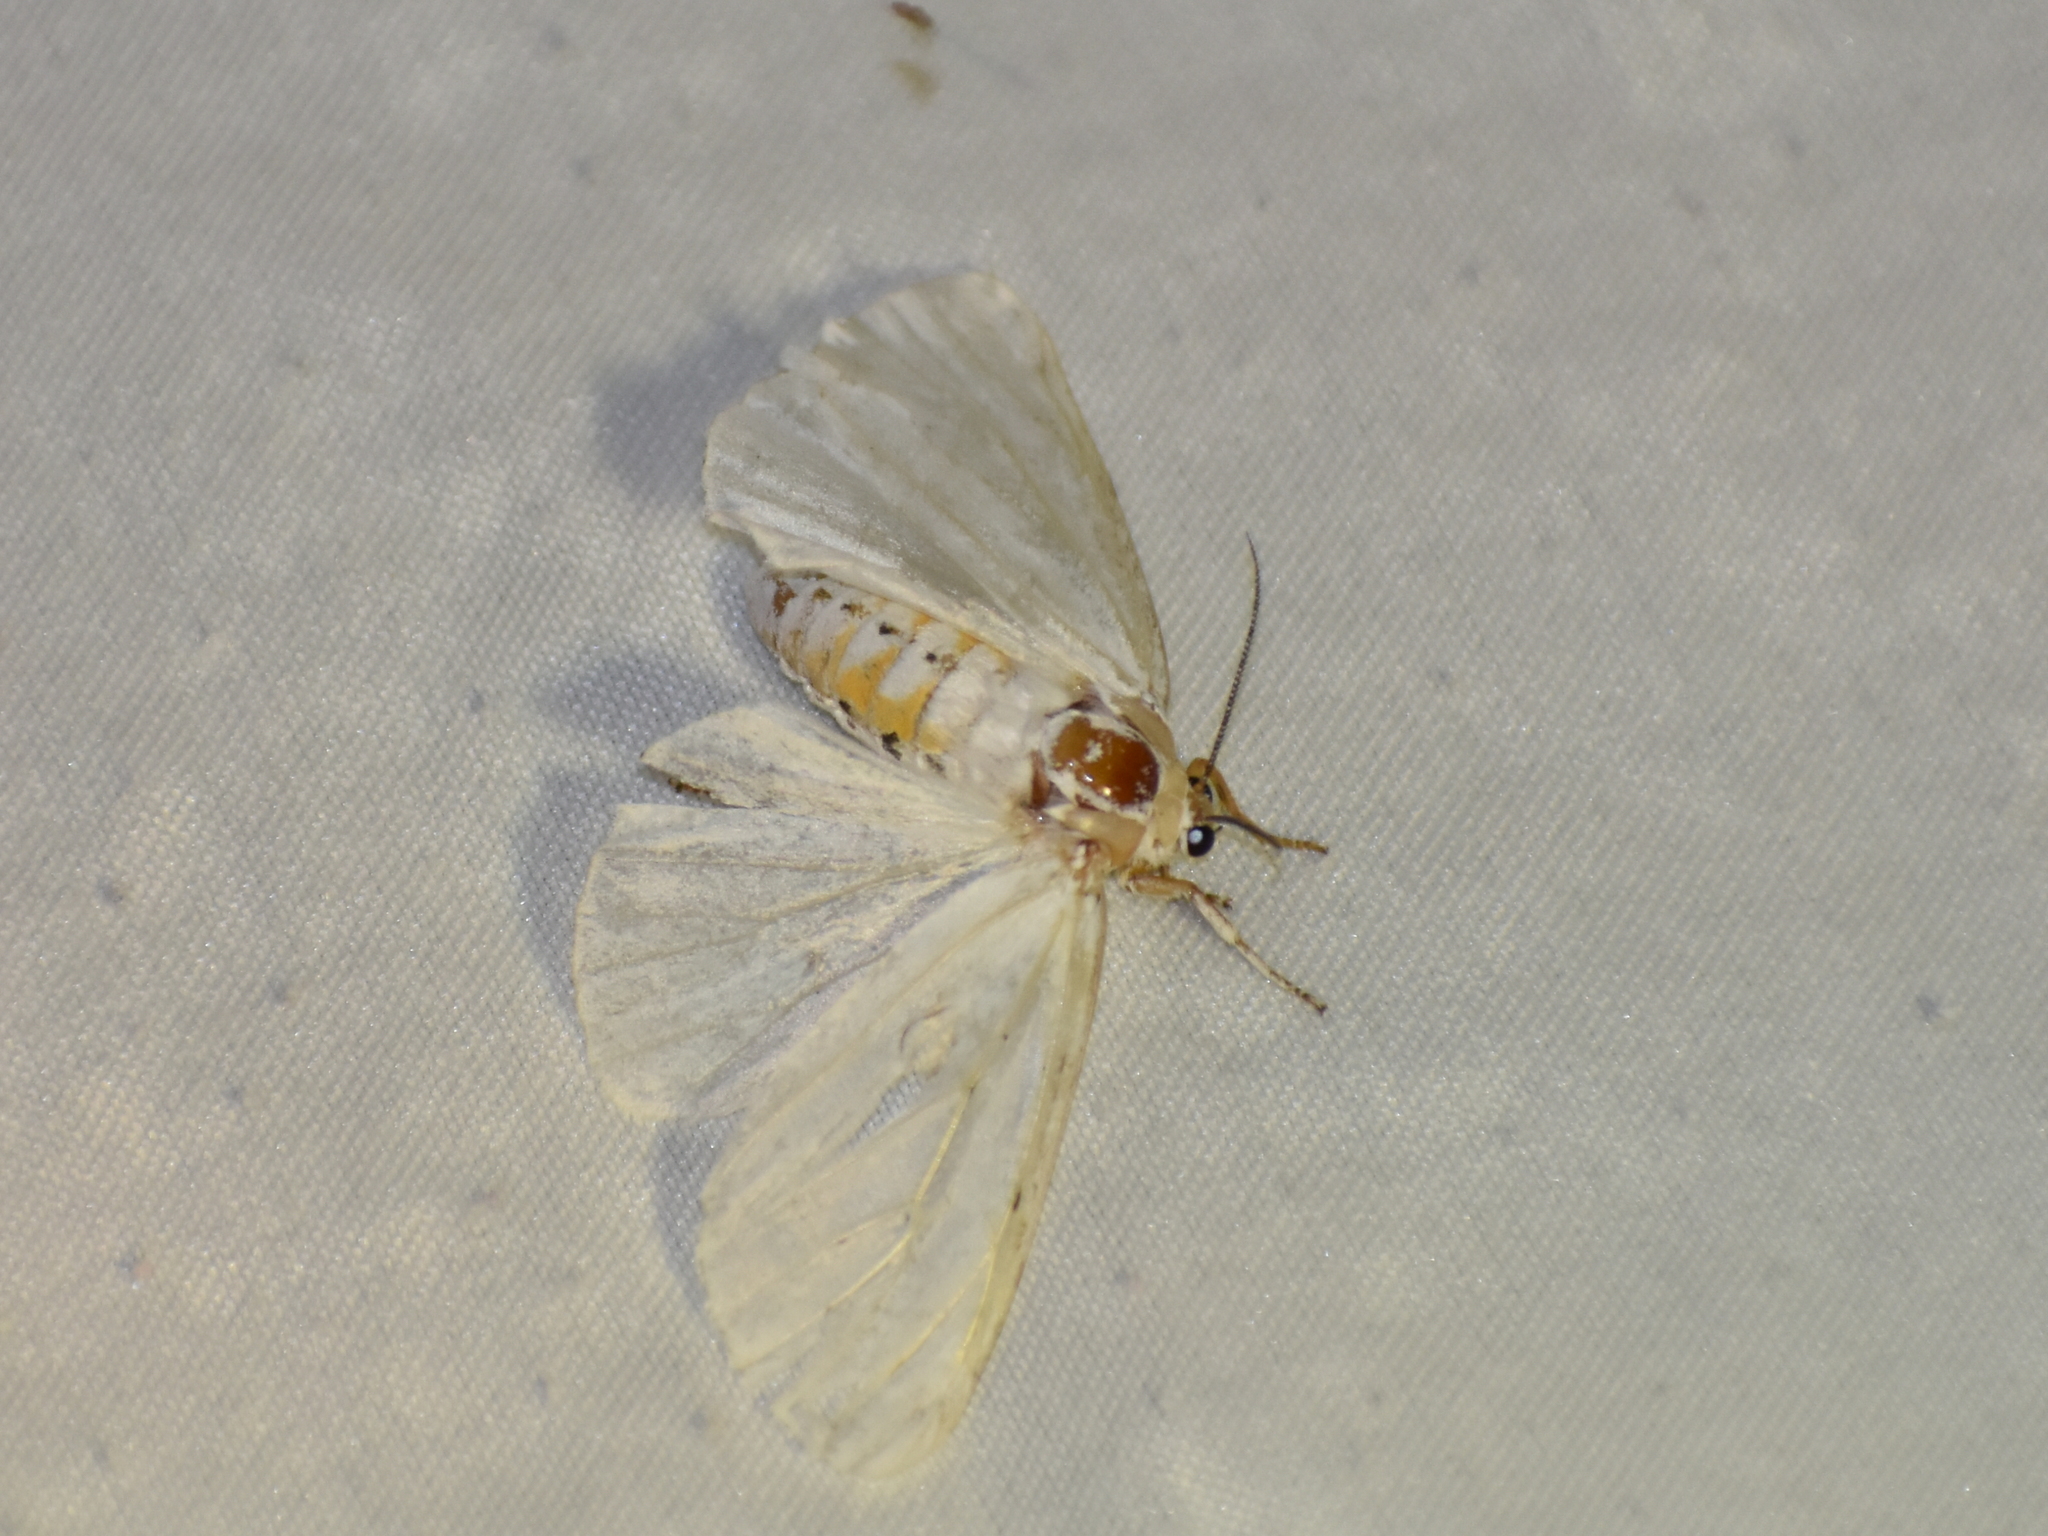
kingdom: Animalia
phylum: Arthropoda
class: Insecta
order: Lepidoptera
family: Erebidae
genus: Spilosoma
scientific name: Spilosoma virginica
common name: Virginia tiger moth
